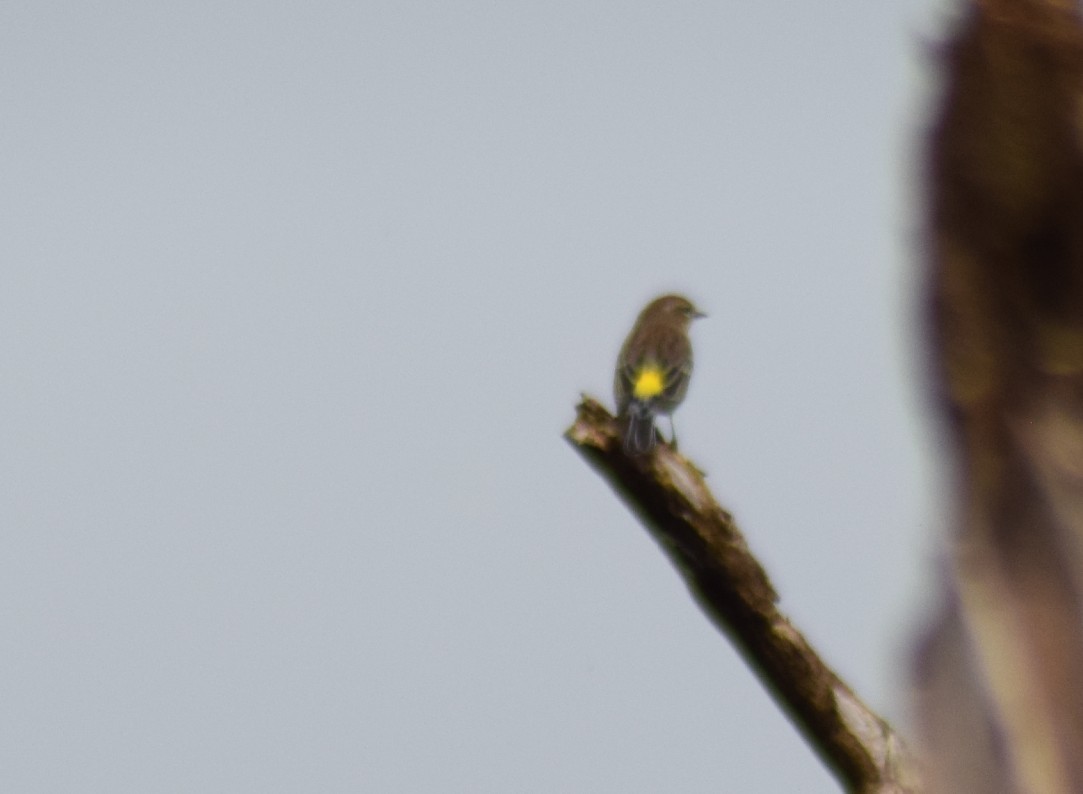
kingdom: Animalia
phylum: Chordata
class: Aves
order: Passeriformes
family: Parulidae
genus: Setophaga
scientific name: Setophaga coronata
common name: Myrtle warbler
